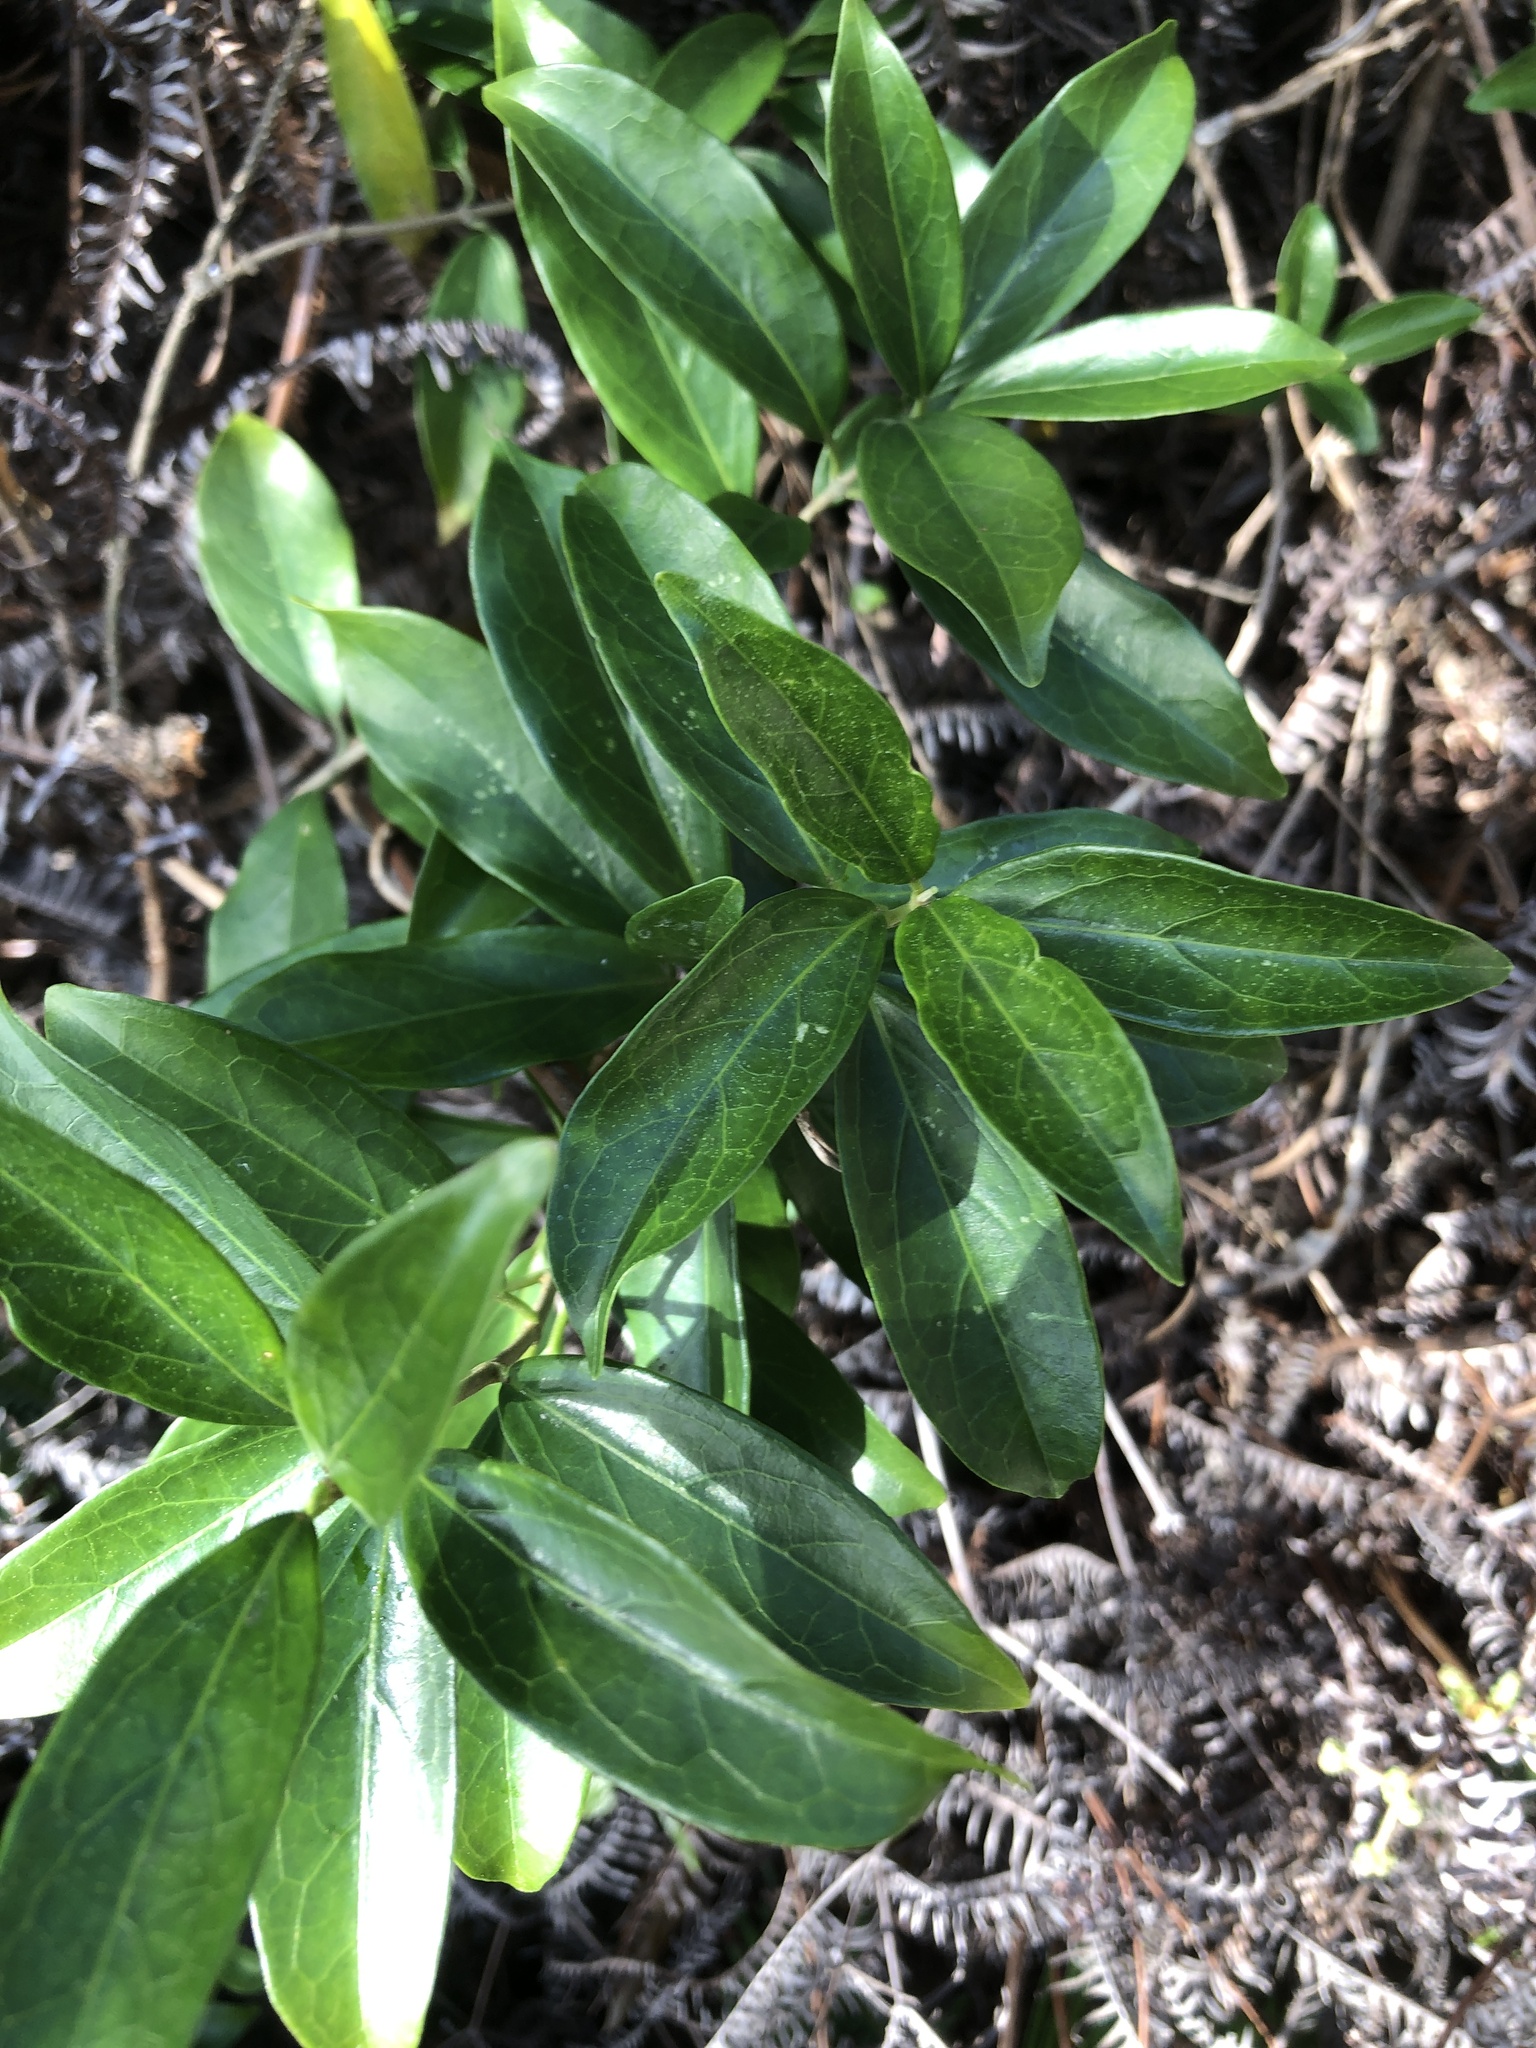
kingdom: Plantae
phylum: Tracheophyta
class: Magnoliopsida
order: Gentianales
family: Apocynaceae
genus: Gymnema
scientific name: Gymnema sylvestre
